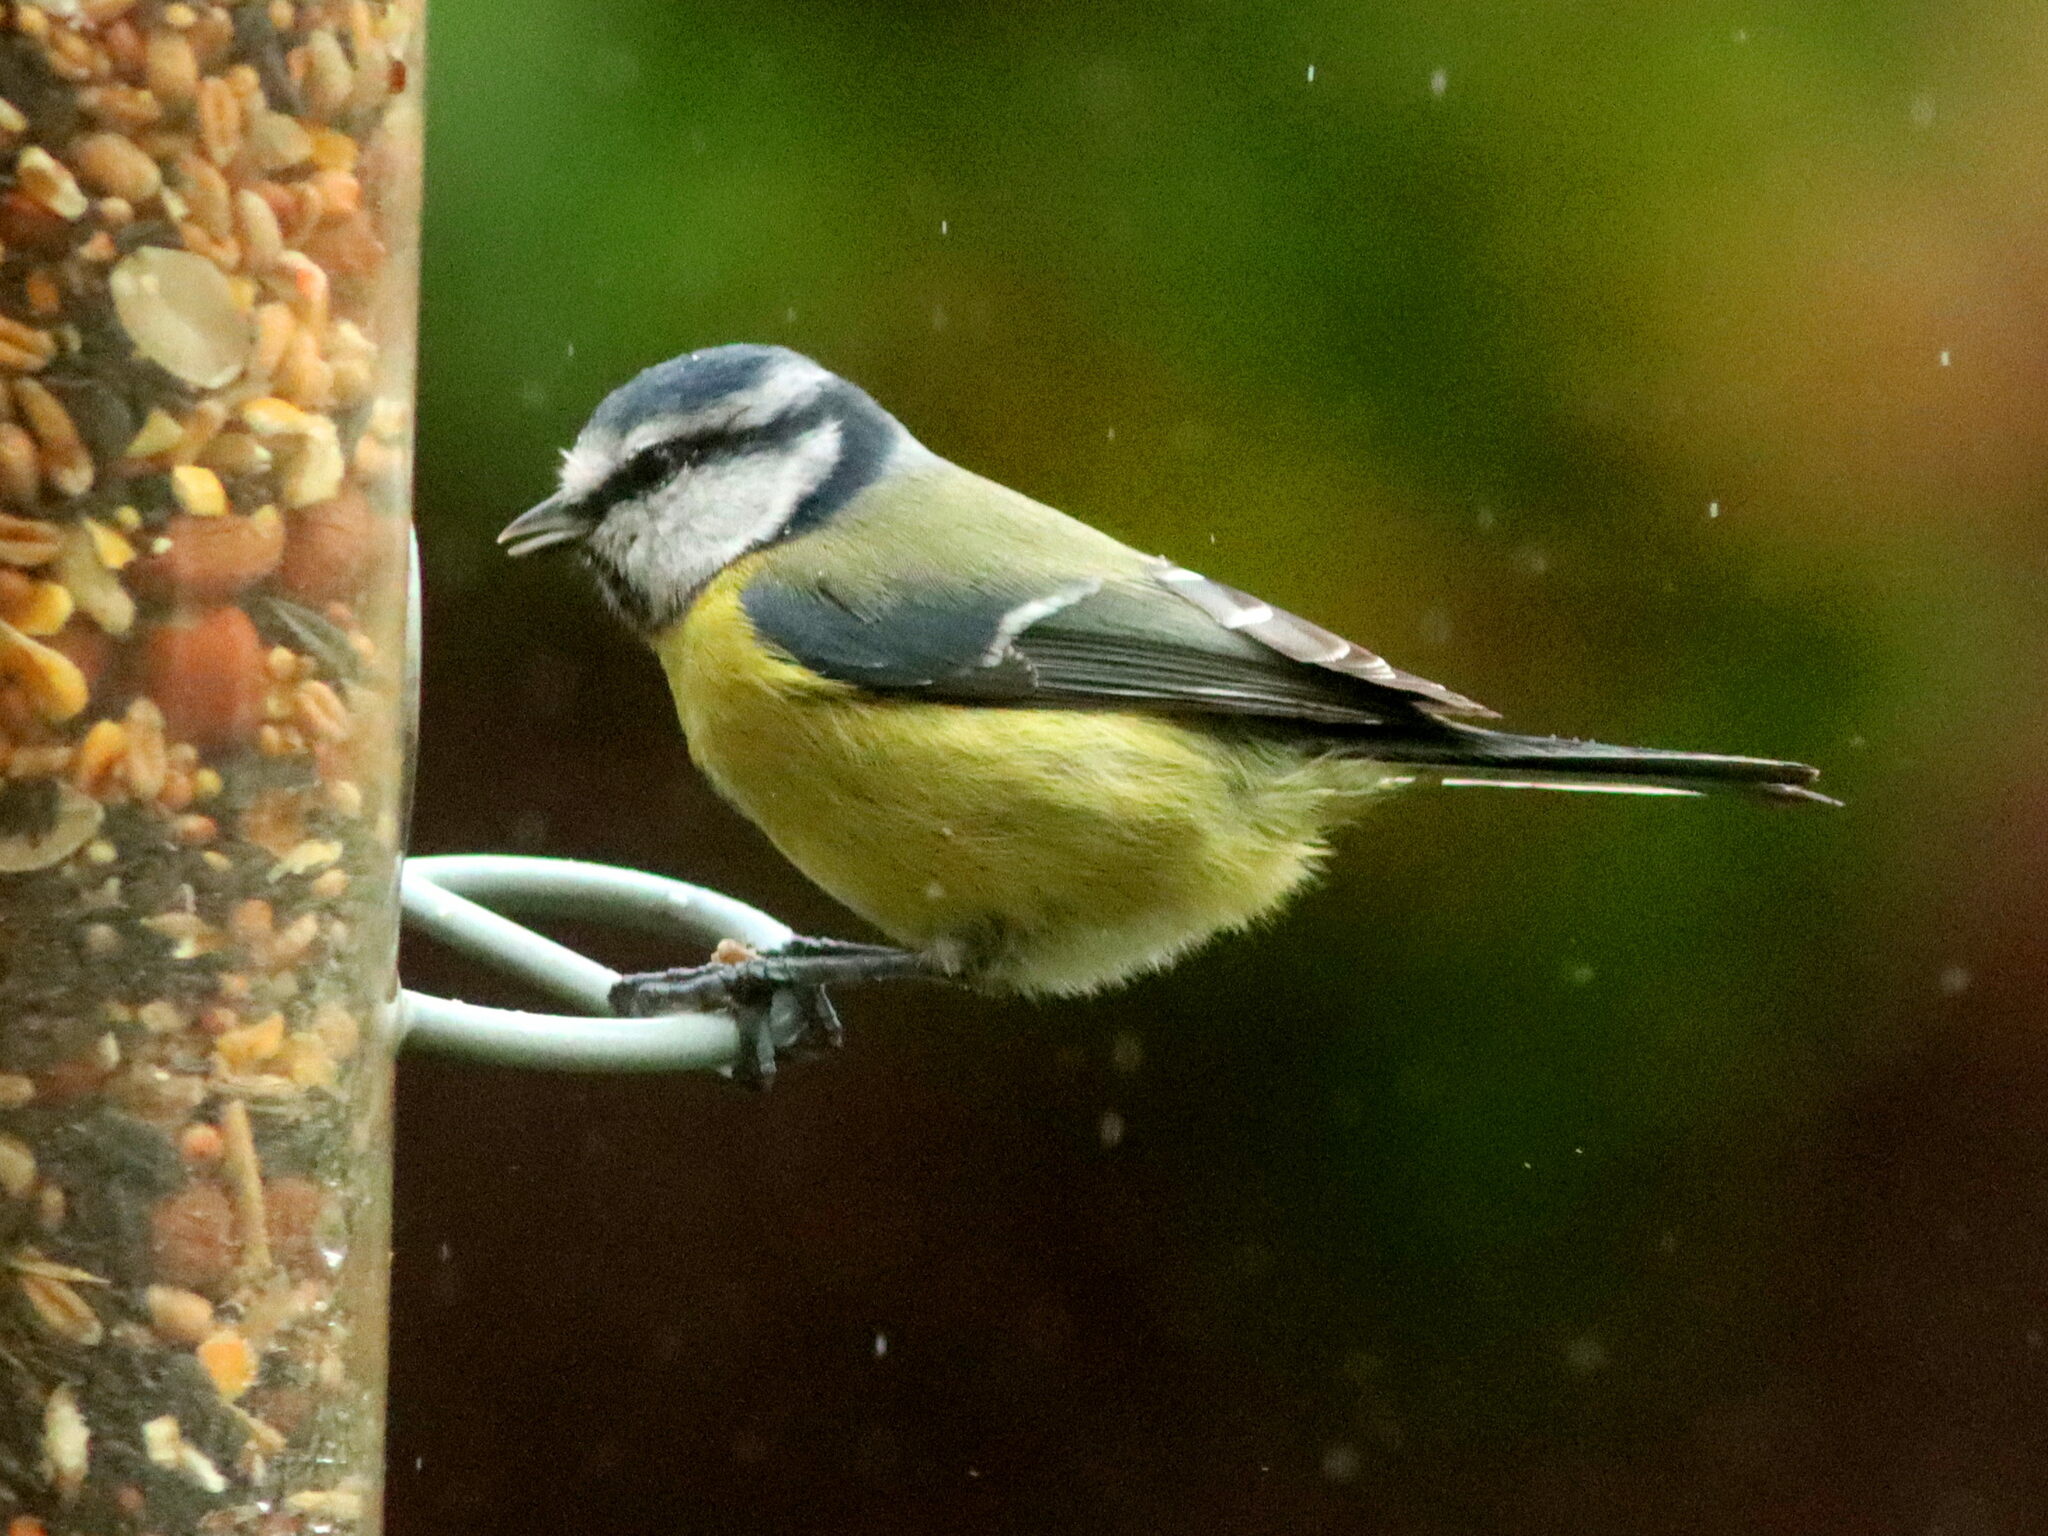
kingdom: Animalia
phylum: Chordata
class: Aves
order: Passeriformes
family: Paridae
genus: Cyanistes
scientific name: Cyanistes caeruleus
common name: Eurasian blue tit
